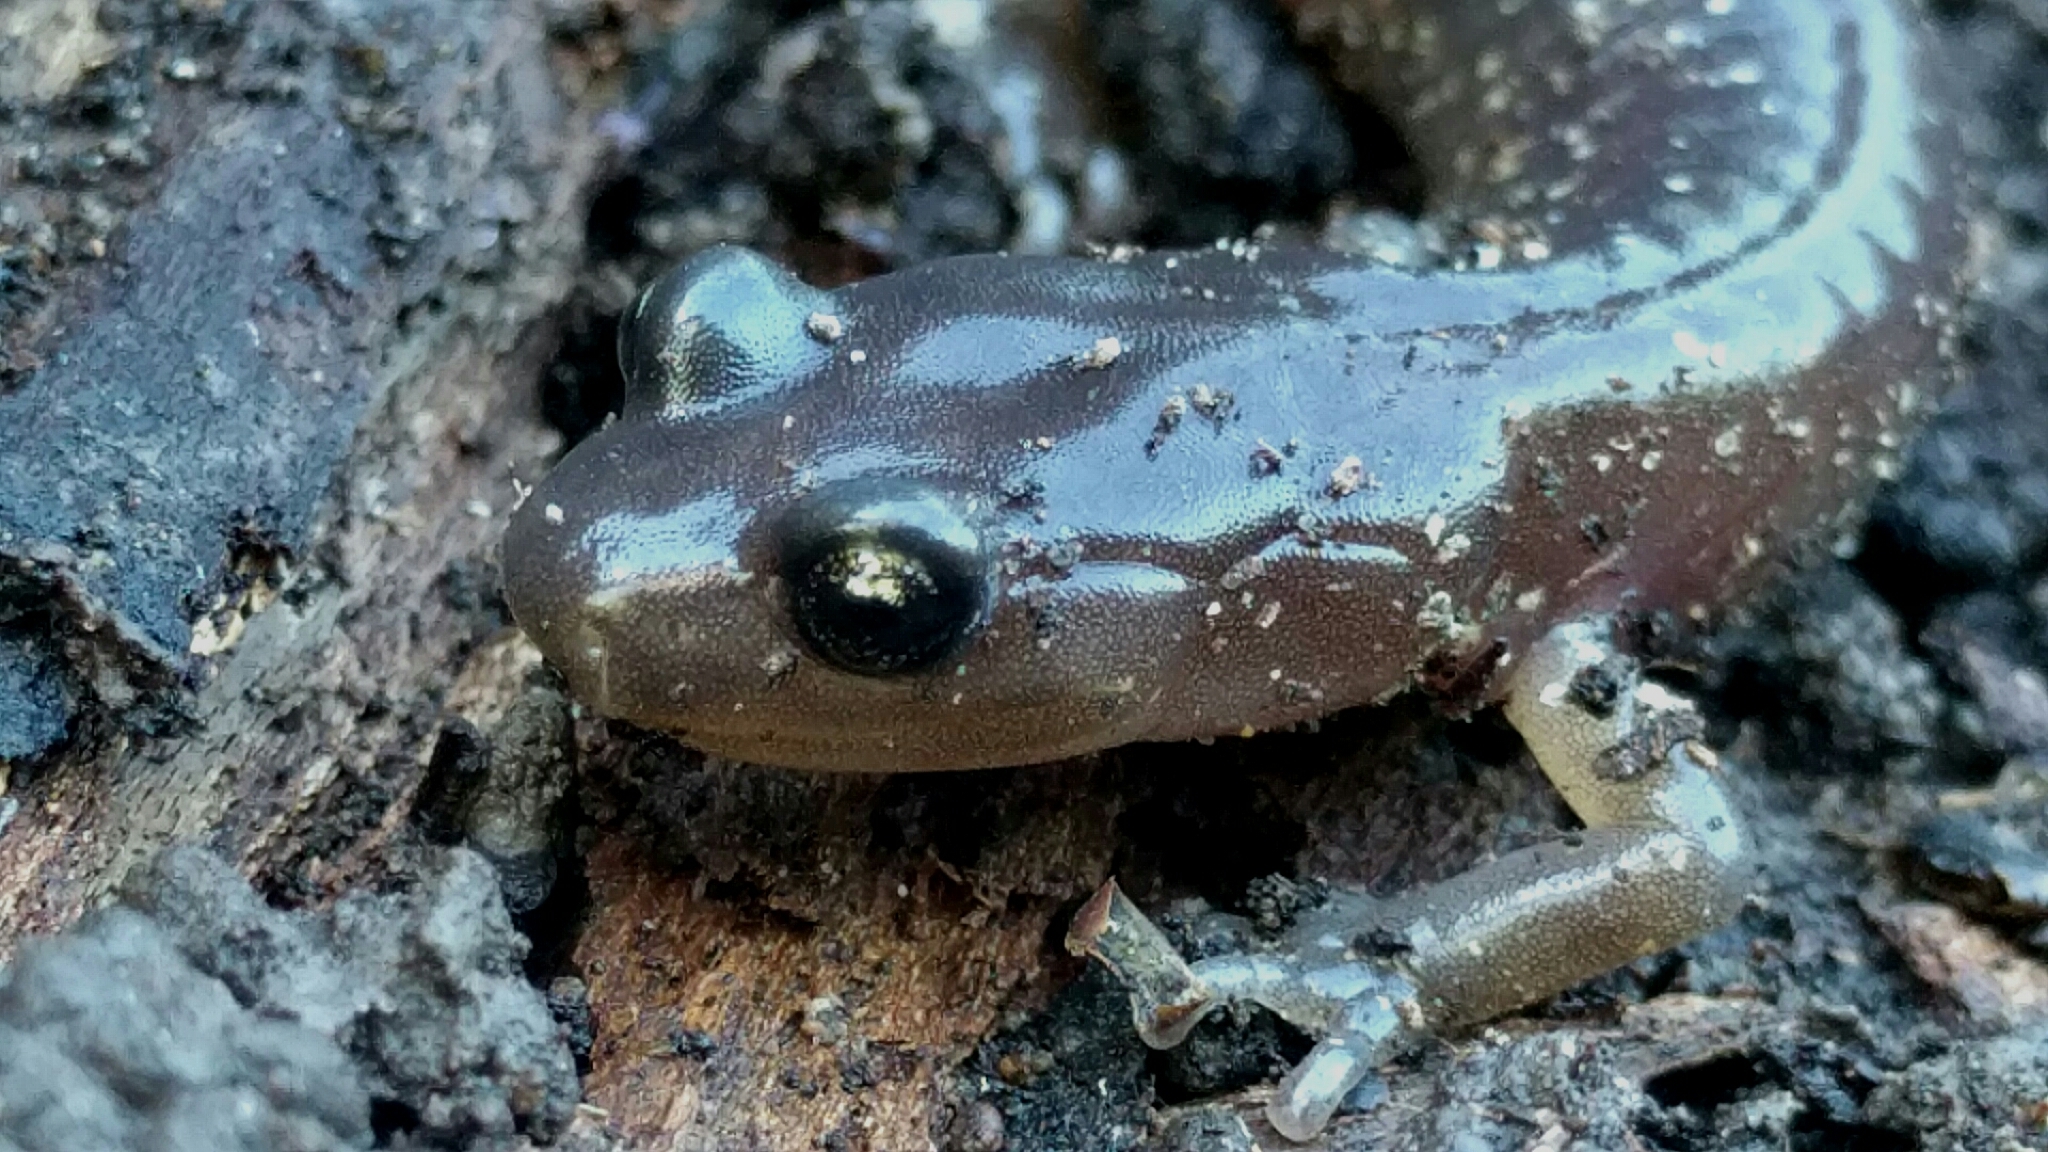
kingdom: Animalia
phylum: Chordata
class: Amphibia
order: Caudata
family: Plethodontidae
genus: Aneides
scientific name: Aneides lugubris
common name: Arboreal salamander
